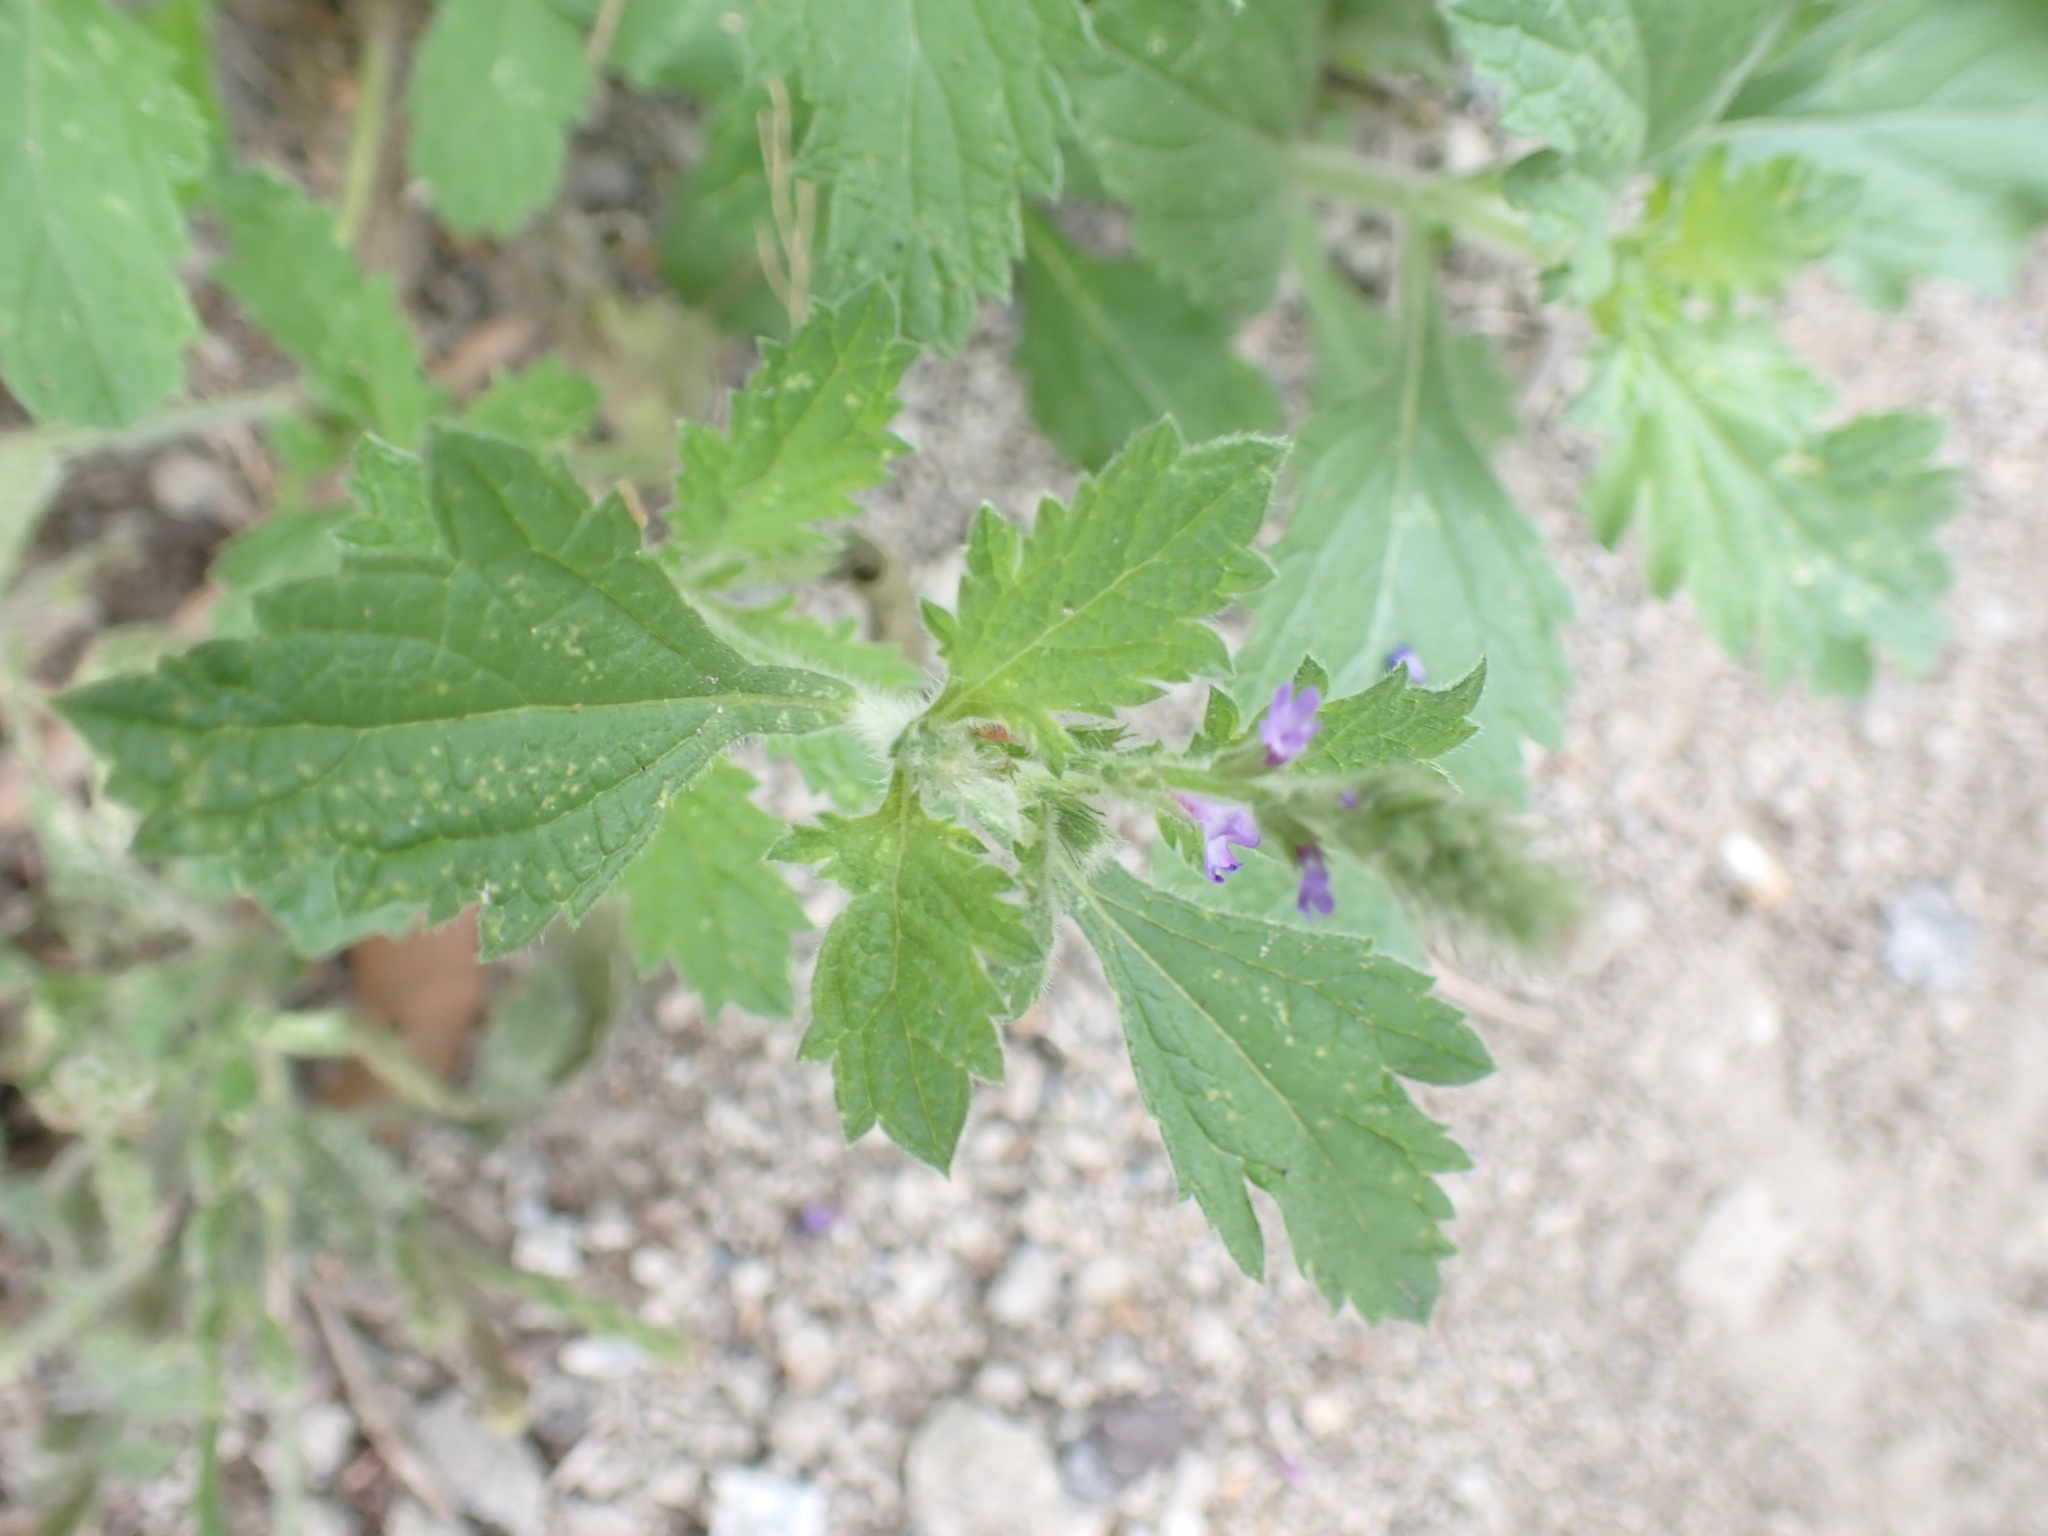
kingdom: Plantae
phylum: Tracheophyta
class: Magnoliopsida
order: Lamiales
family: Verbenaceae
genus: Verbena
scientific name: Verbena lasiostachys
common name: Vervain
